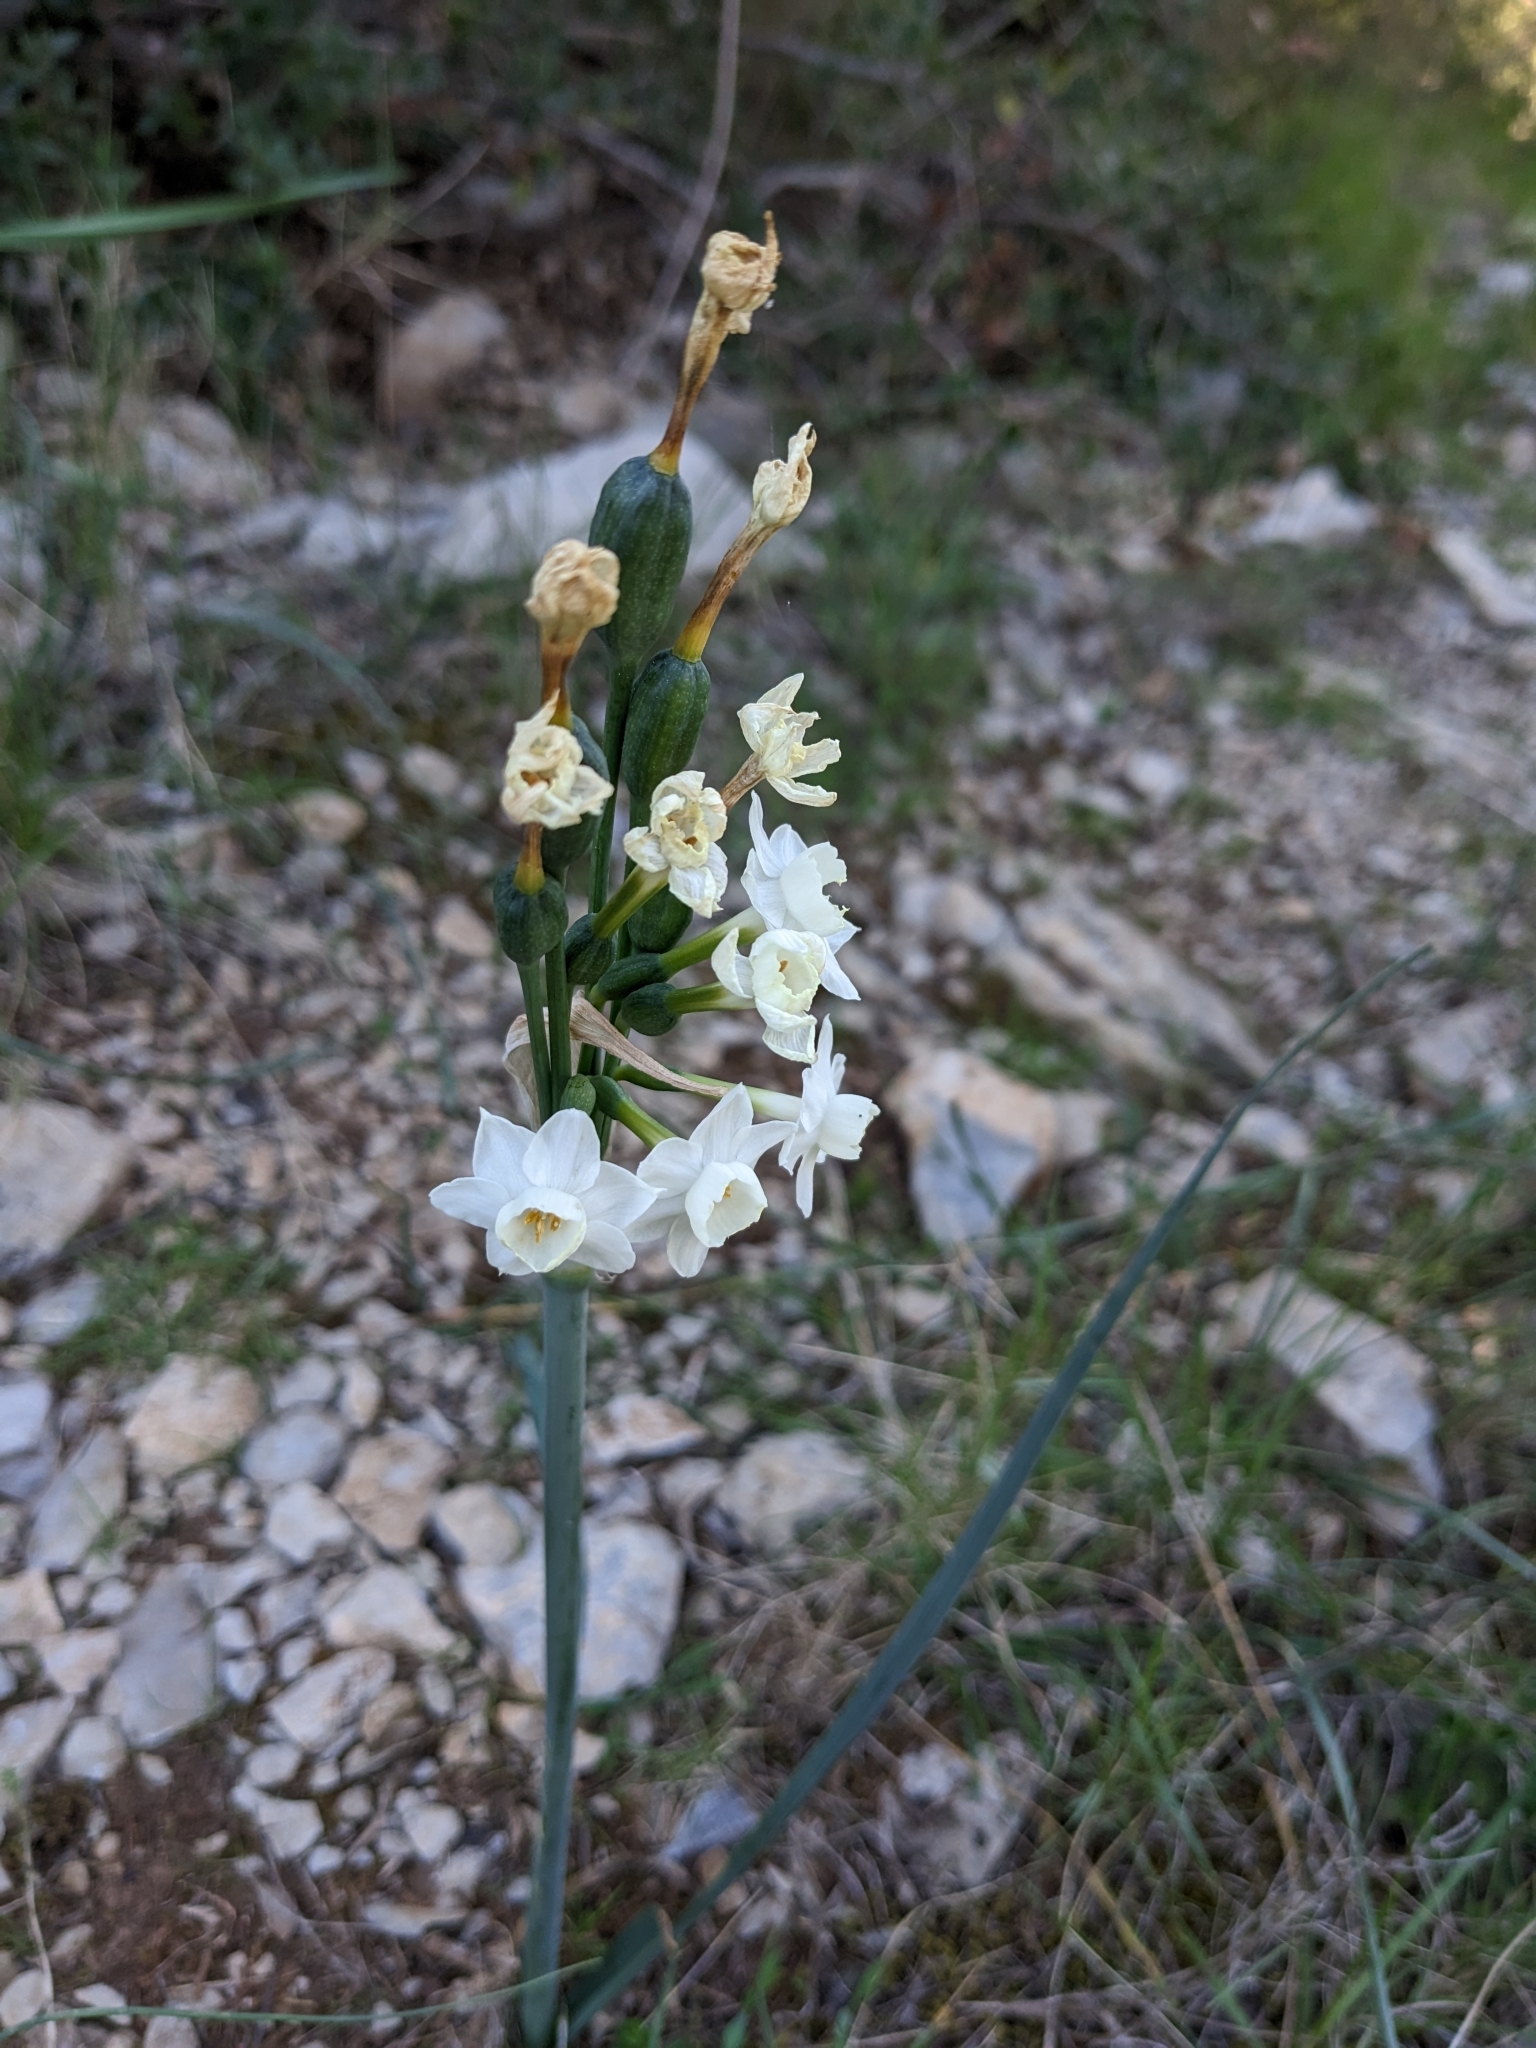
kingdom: Plantae
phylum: Tracheophyta
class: Liliopsida
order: Asparagales
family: Amaryllidaceae
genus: Narcissus
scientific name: Narcissus dubius
